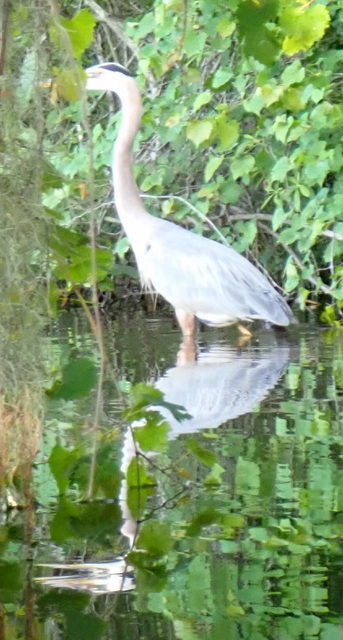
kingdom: Animalia
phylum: Chordata
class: Aves
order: Pelecaniformes
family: Ardeidae
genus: Ardea
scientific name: Ardea herodias
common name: Great blue heron
